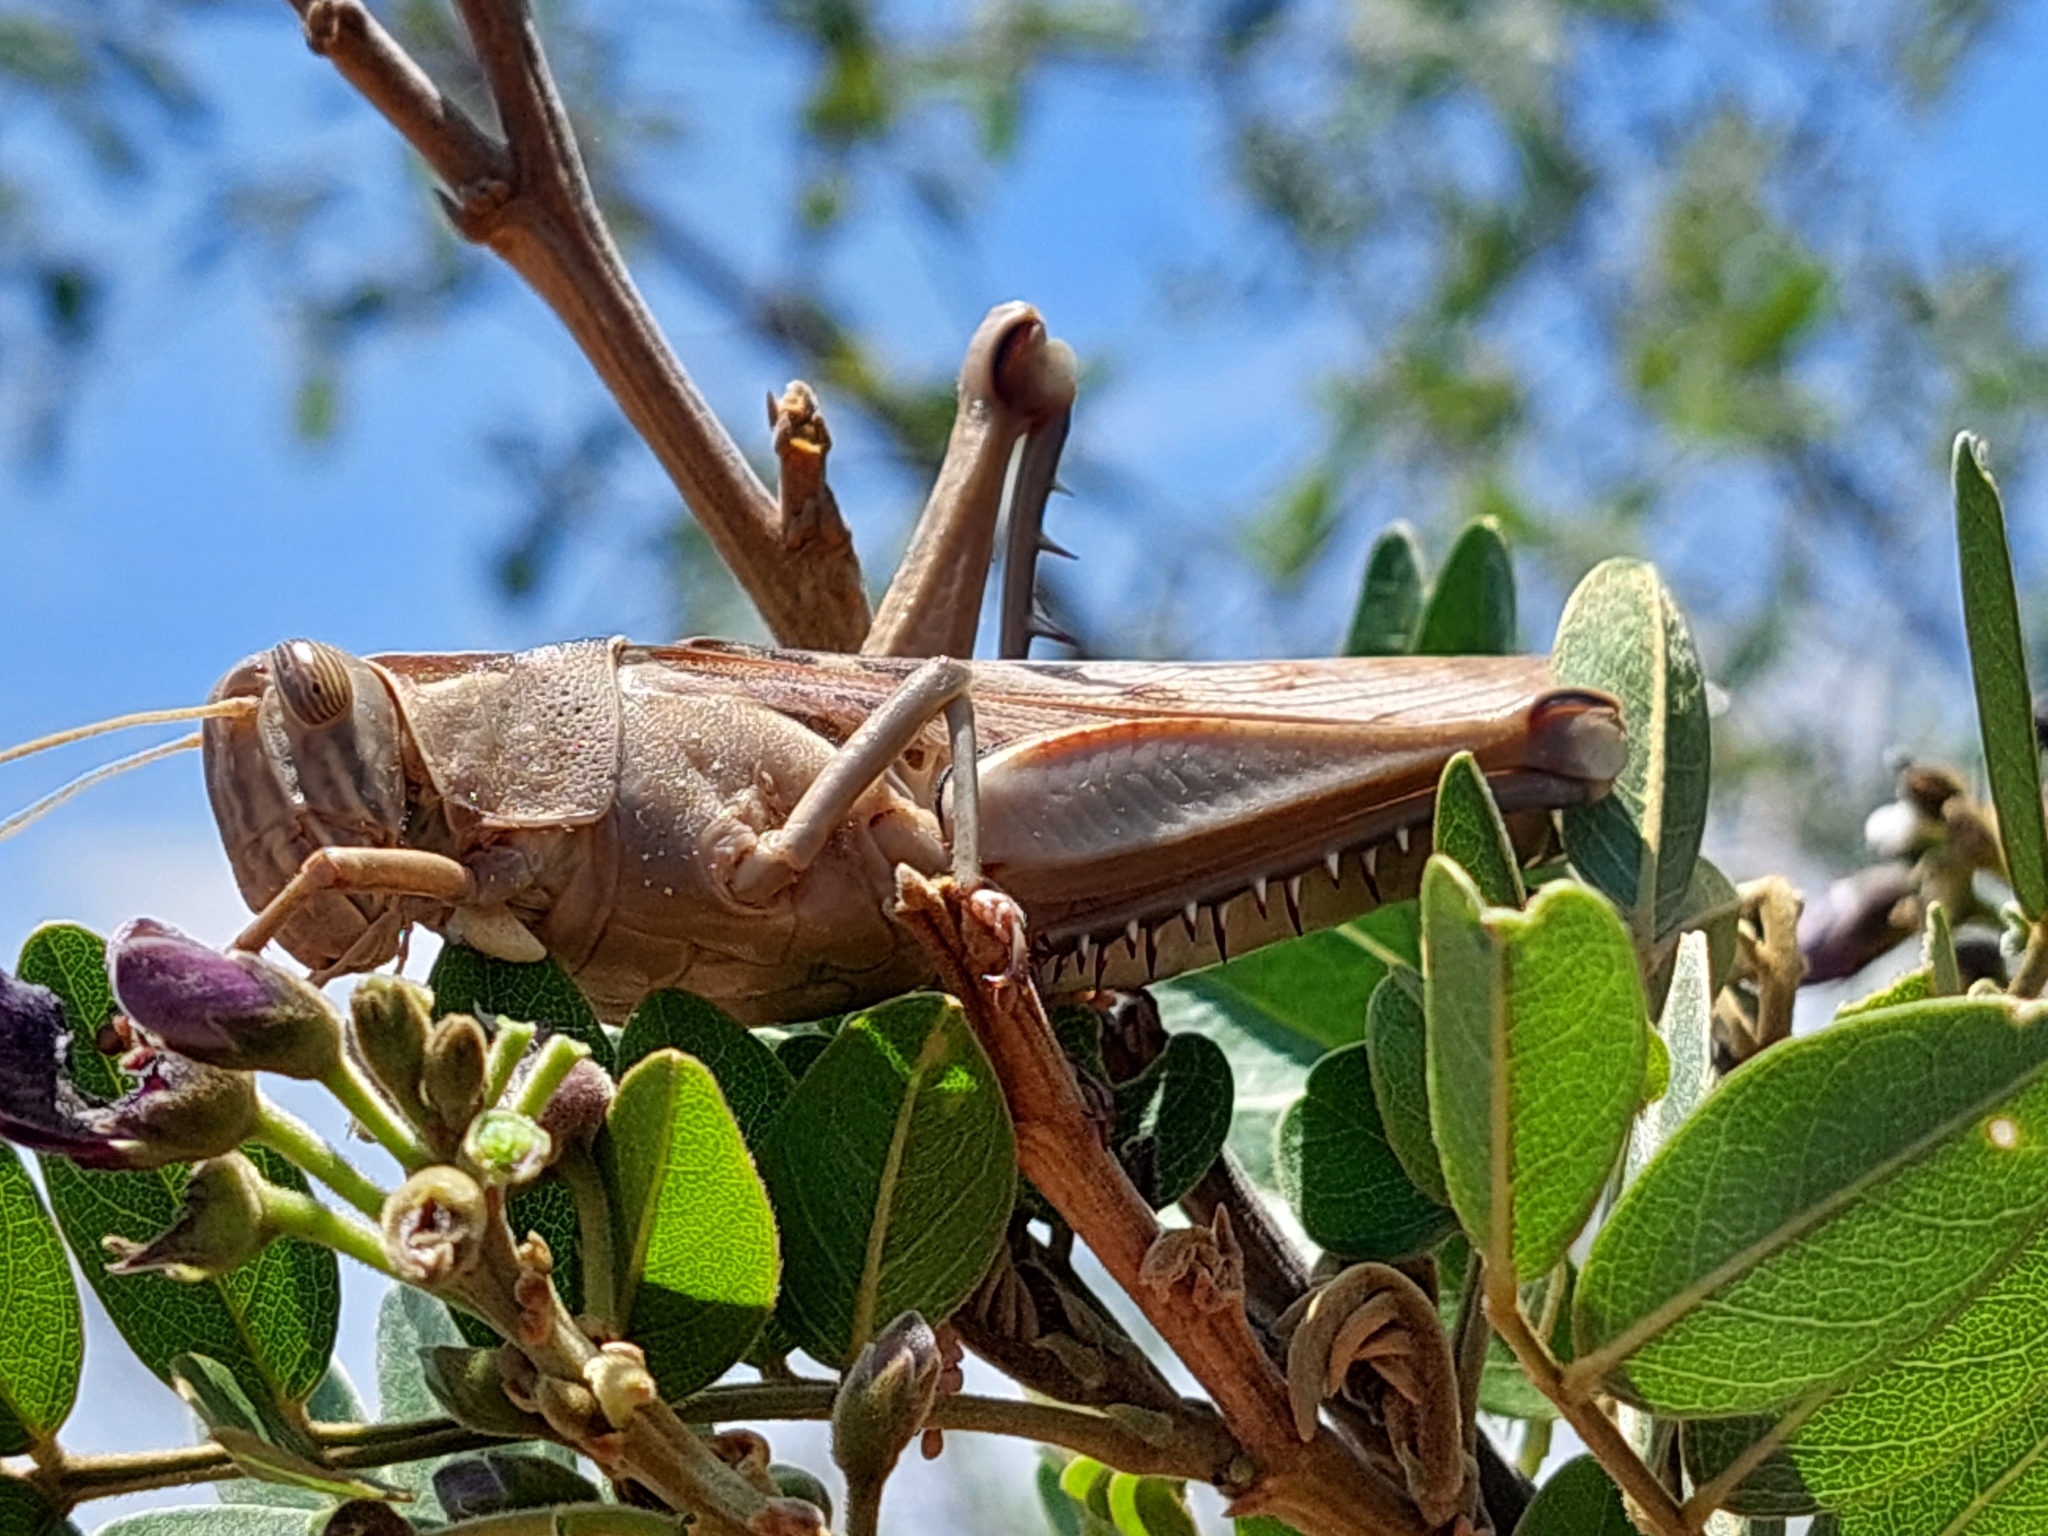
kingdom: Animalia
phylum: Arthropoda
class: Insecta
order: Orthoptera
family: Acrididae
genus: Acanthacris
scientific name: Acanthacris ruficornis
